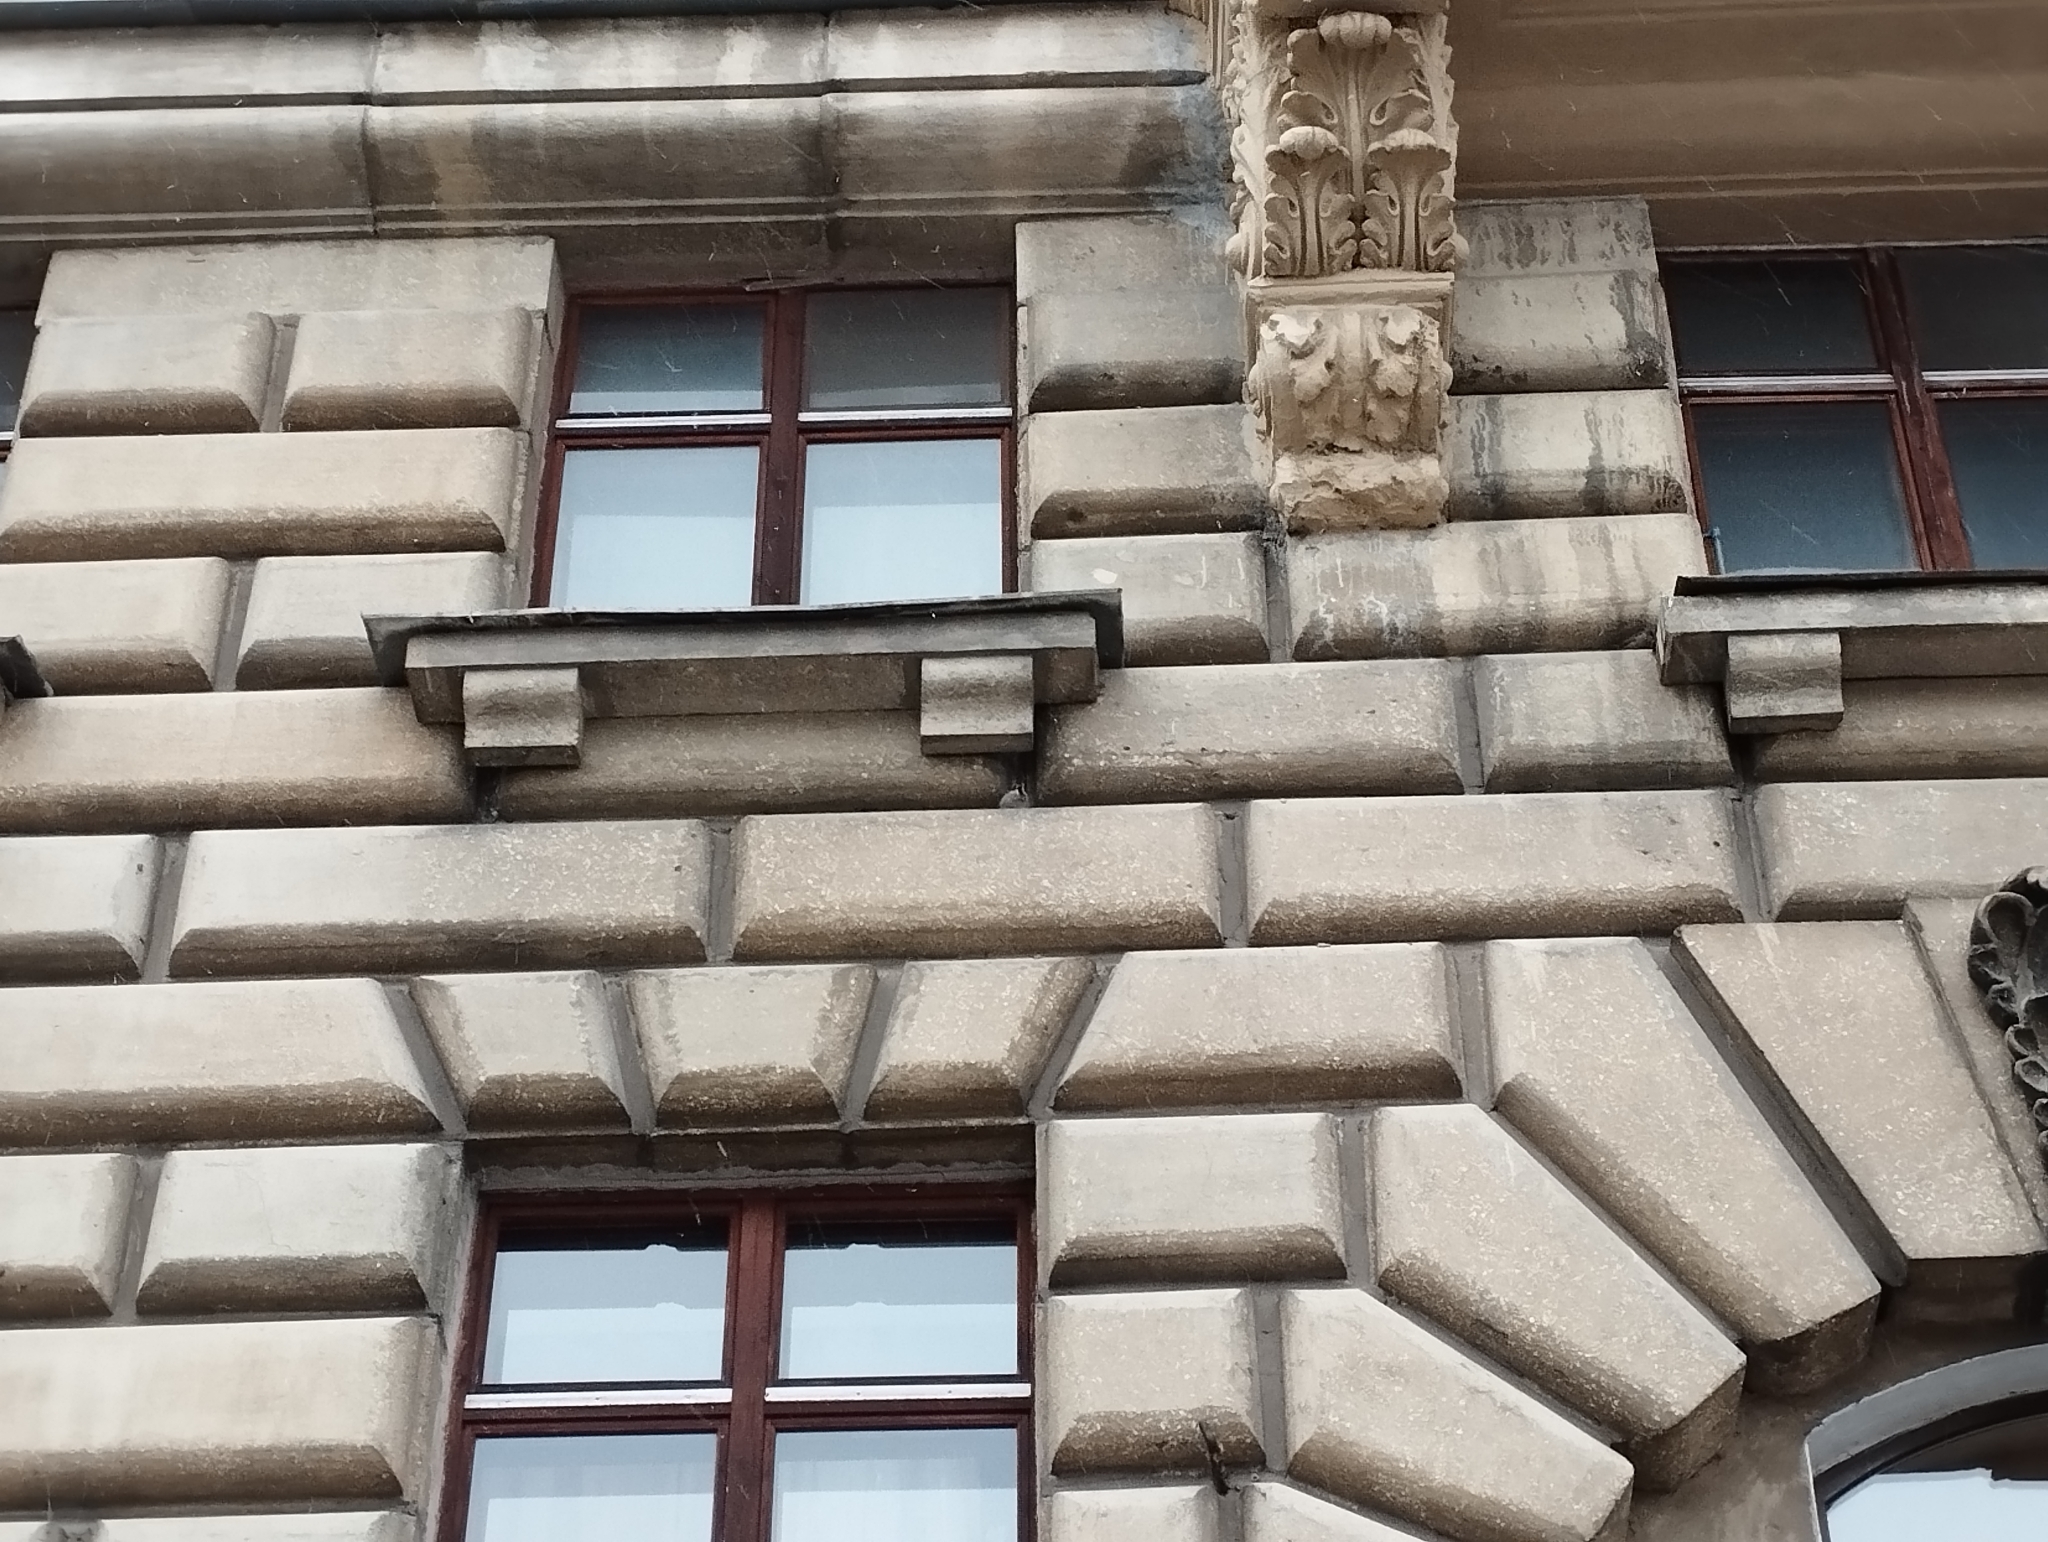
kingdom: Animalia
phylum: Chordata
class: Aves
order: Passeriformes
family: Passeridae
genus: Passer
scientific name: Passer domesticus
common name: House sparrow
